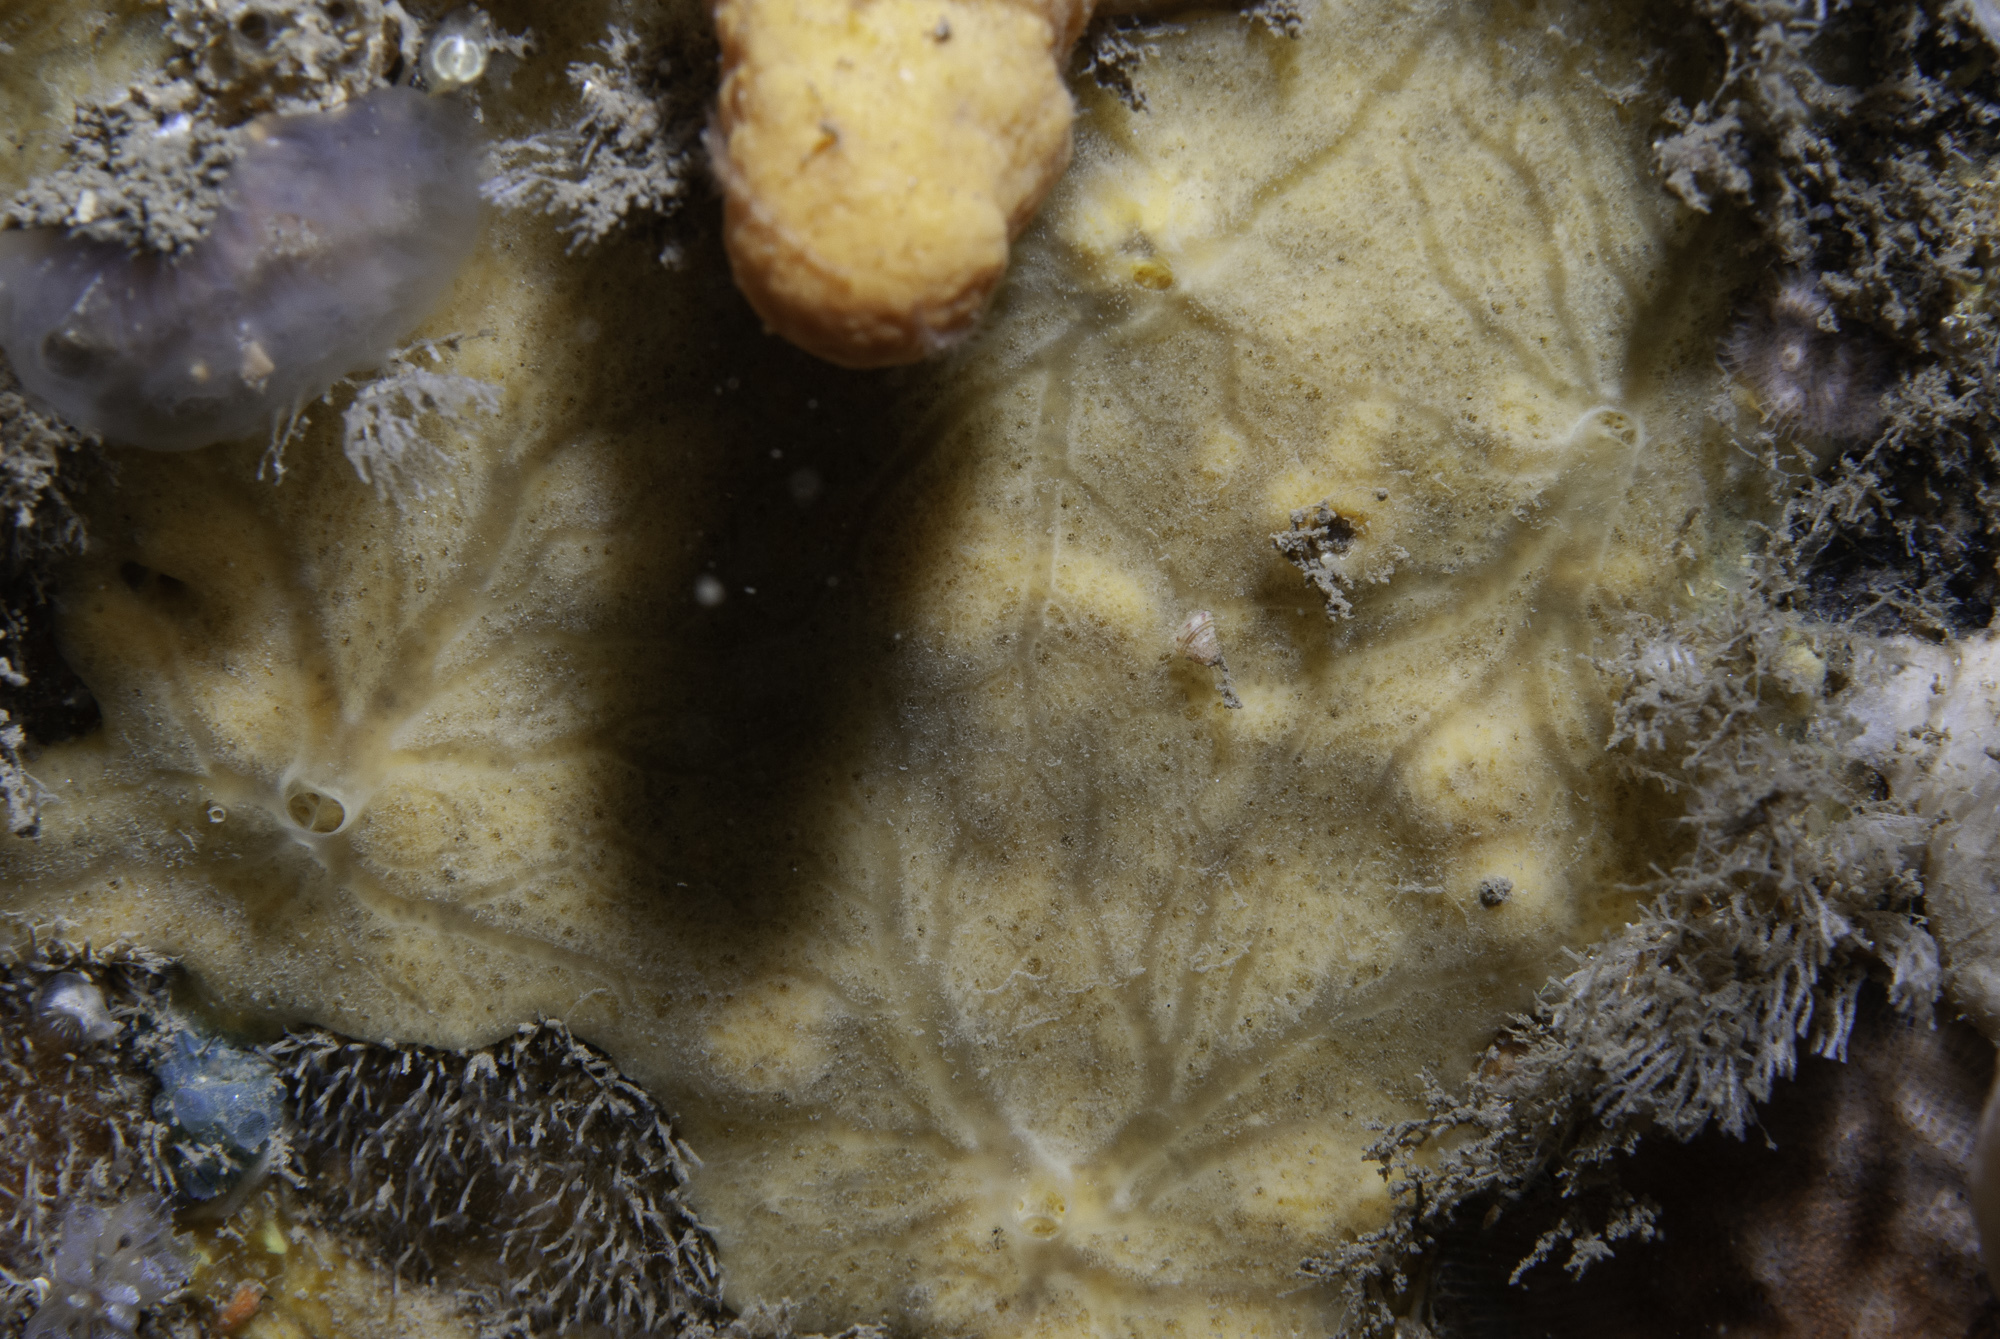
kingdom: Animalia
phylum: Porifera
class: Demospongiae
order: Poecilosclerida
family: Myxillidae
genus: Plocamiancora
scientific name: Plocamiancora arndti
